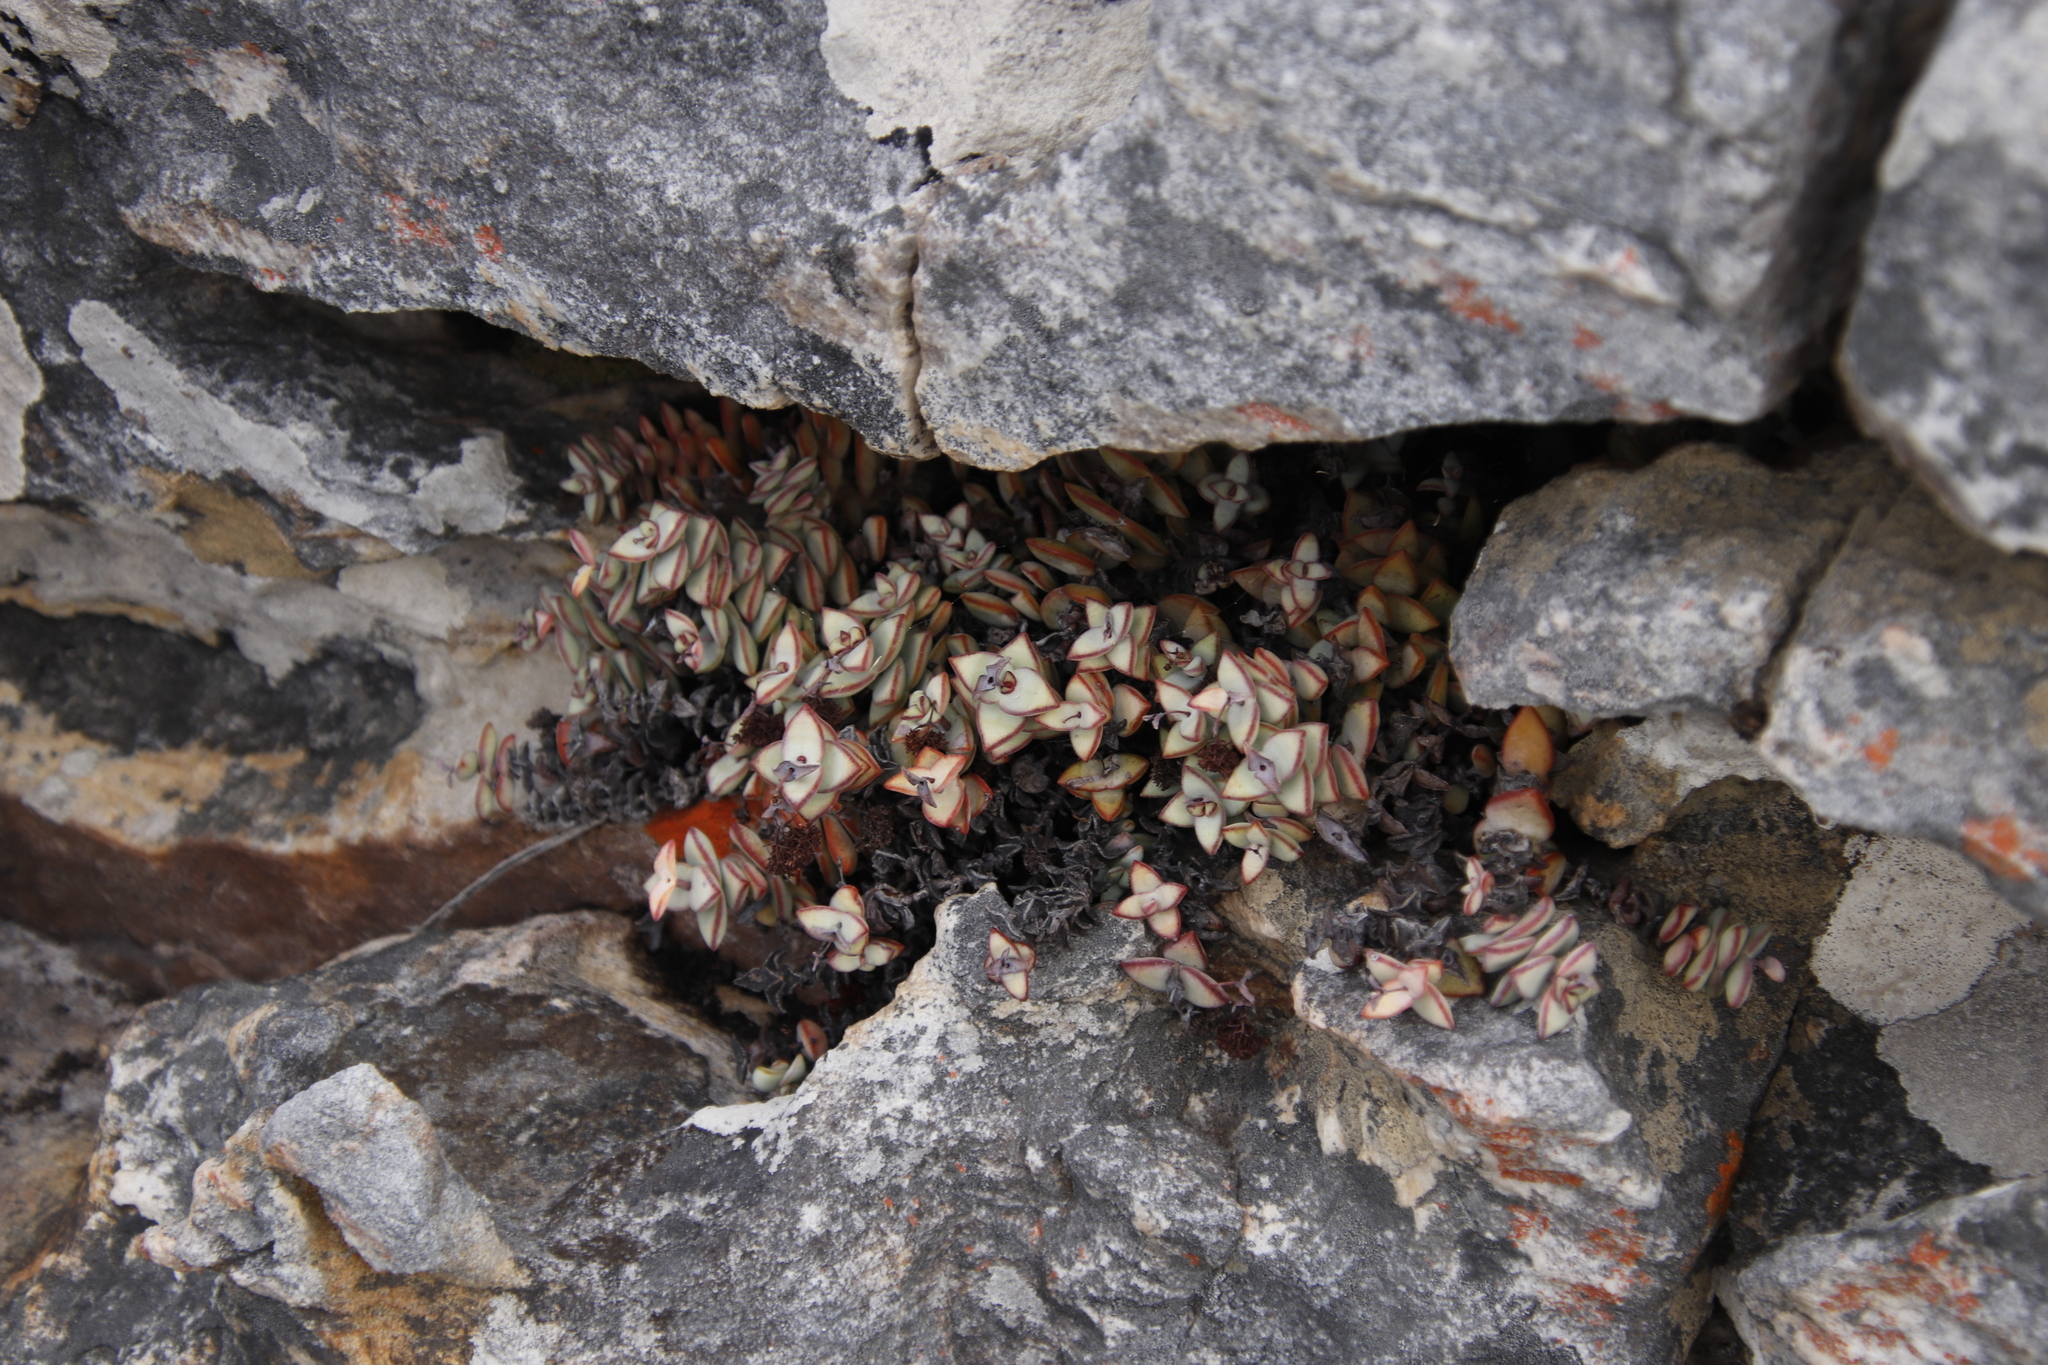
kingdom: Plantae
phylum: Tracheophyta
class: Magnoliopsida
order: Saxifragales
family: Crassulaceae
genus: Crassula
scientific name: Crassula rupestris
